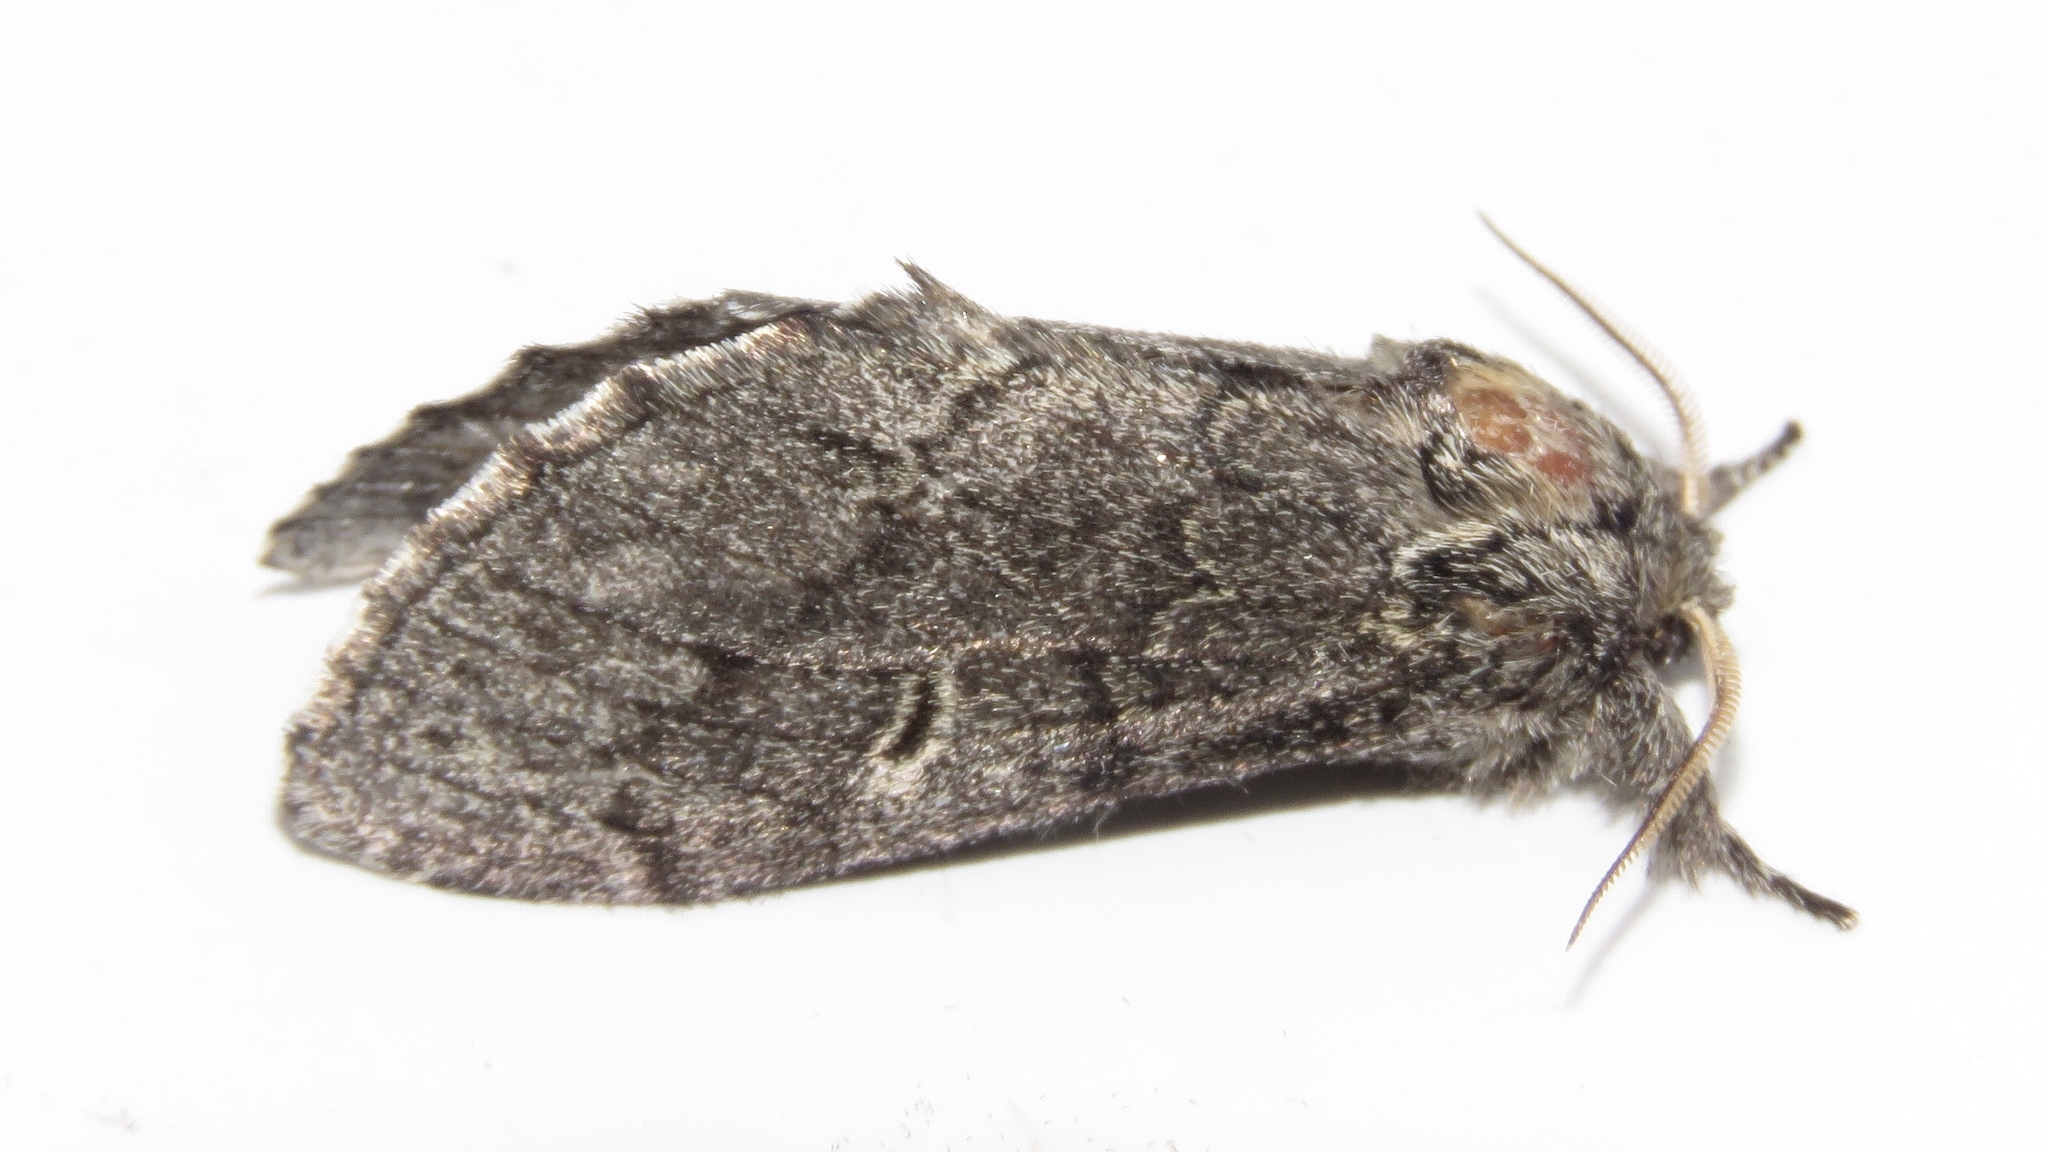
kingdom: Animalia
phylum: Arthropoda
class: Insecta
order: Lepidoptera
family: Notodontidae
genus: Notodonta
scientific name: Notodonta torva
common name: Large dark prominent
